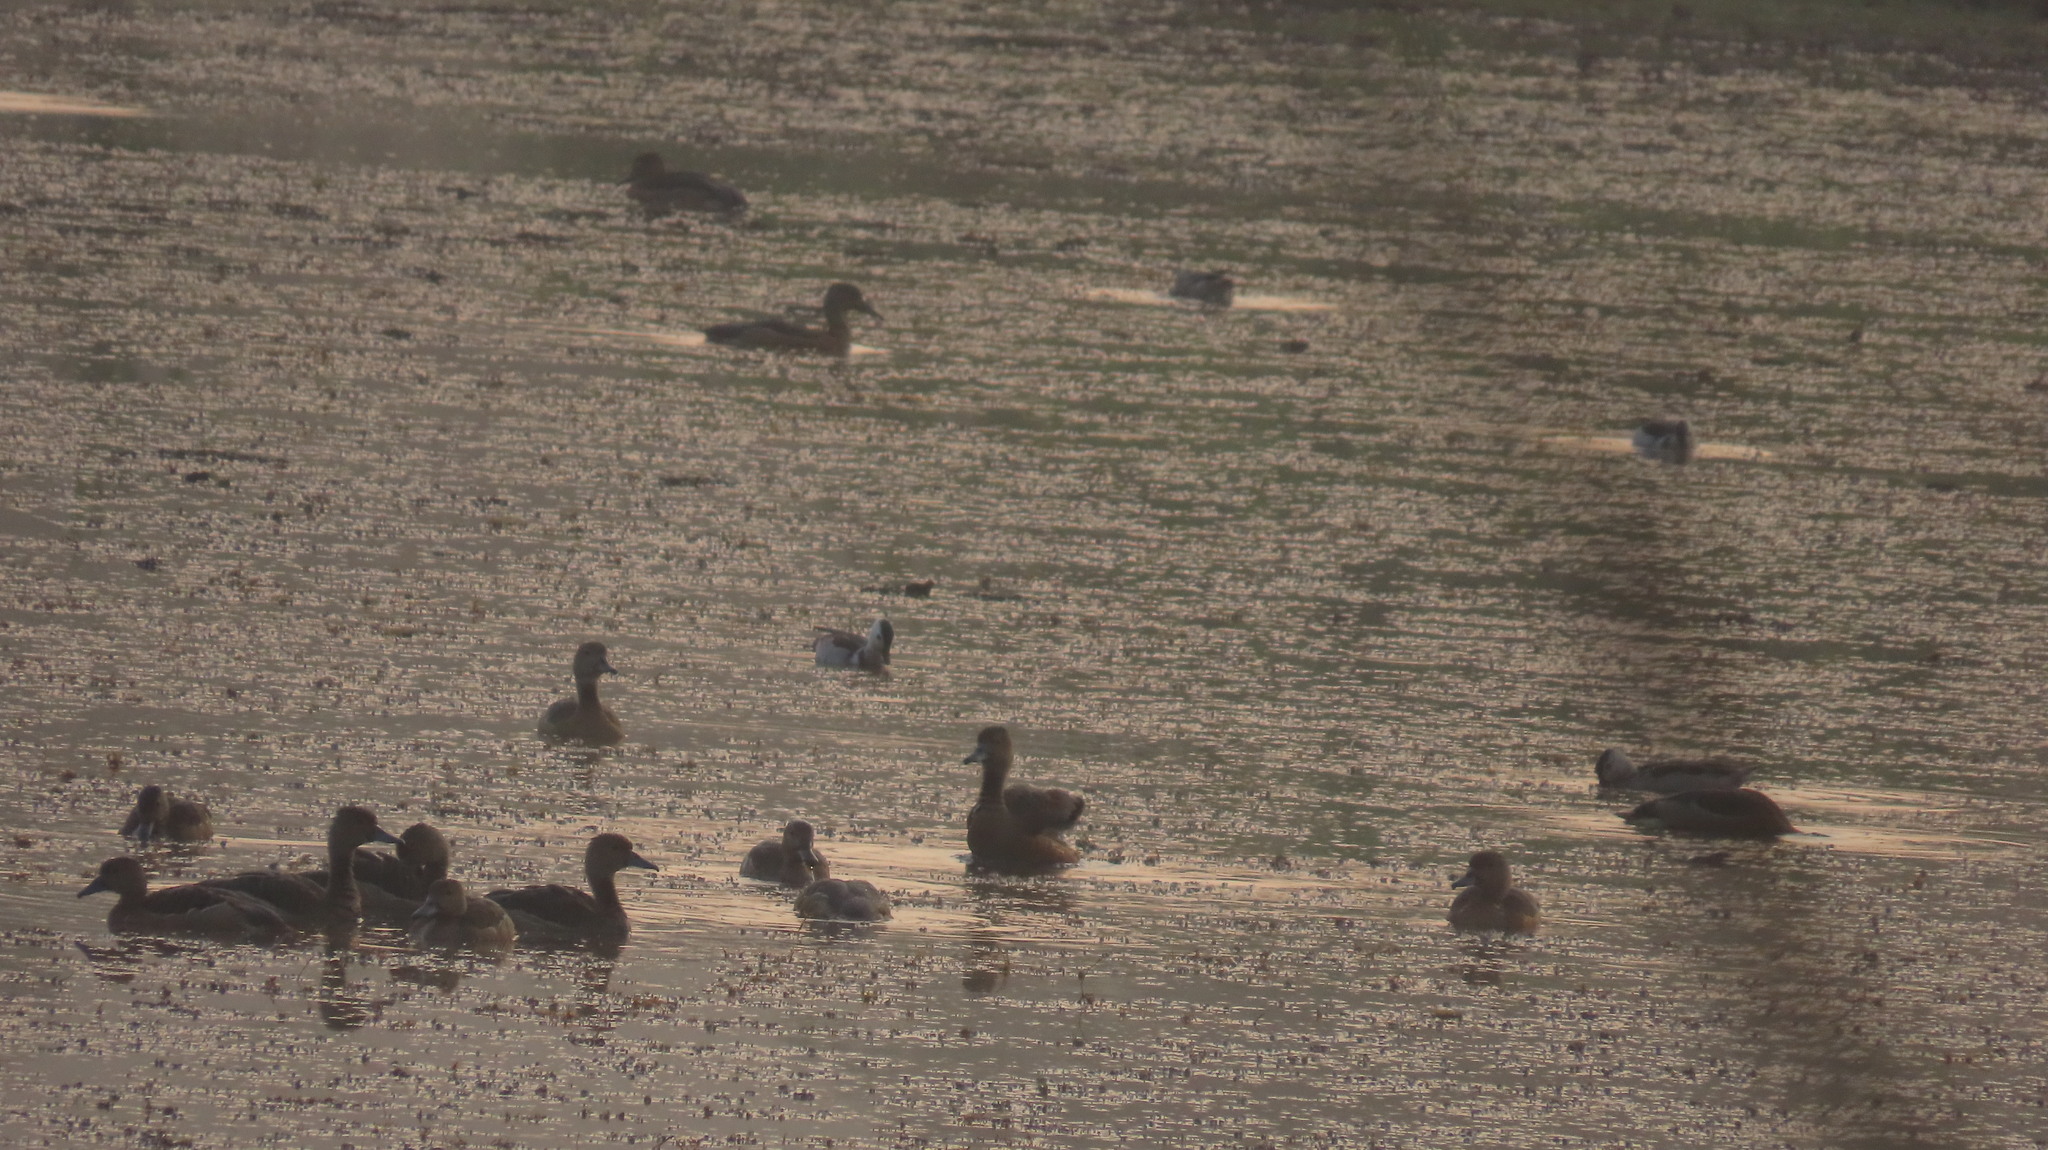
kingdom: Animalia
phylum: Chordata
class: Aves
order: Anseriformes
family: Anatidae
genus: Dendrocygna
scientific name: Dendrocygna javanica
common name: Lesser whistling-duck
